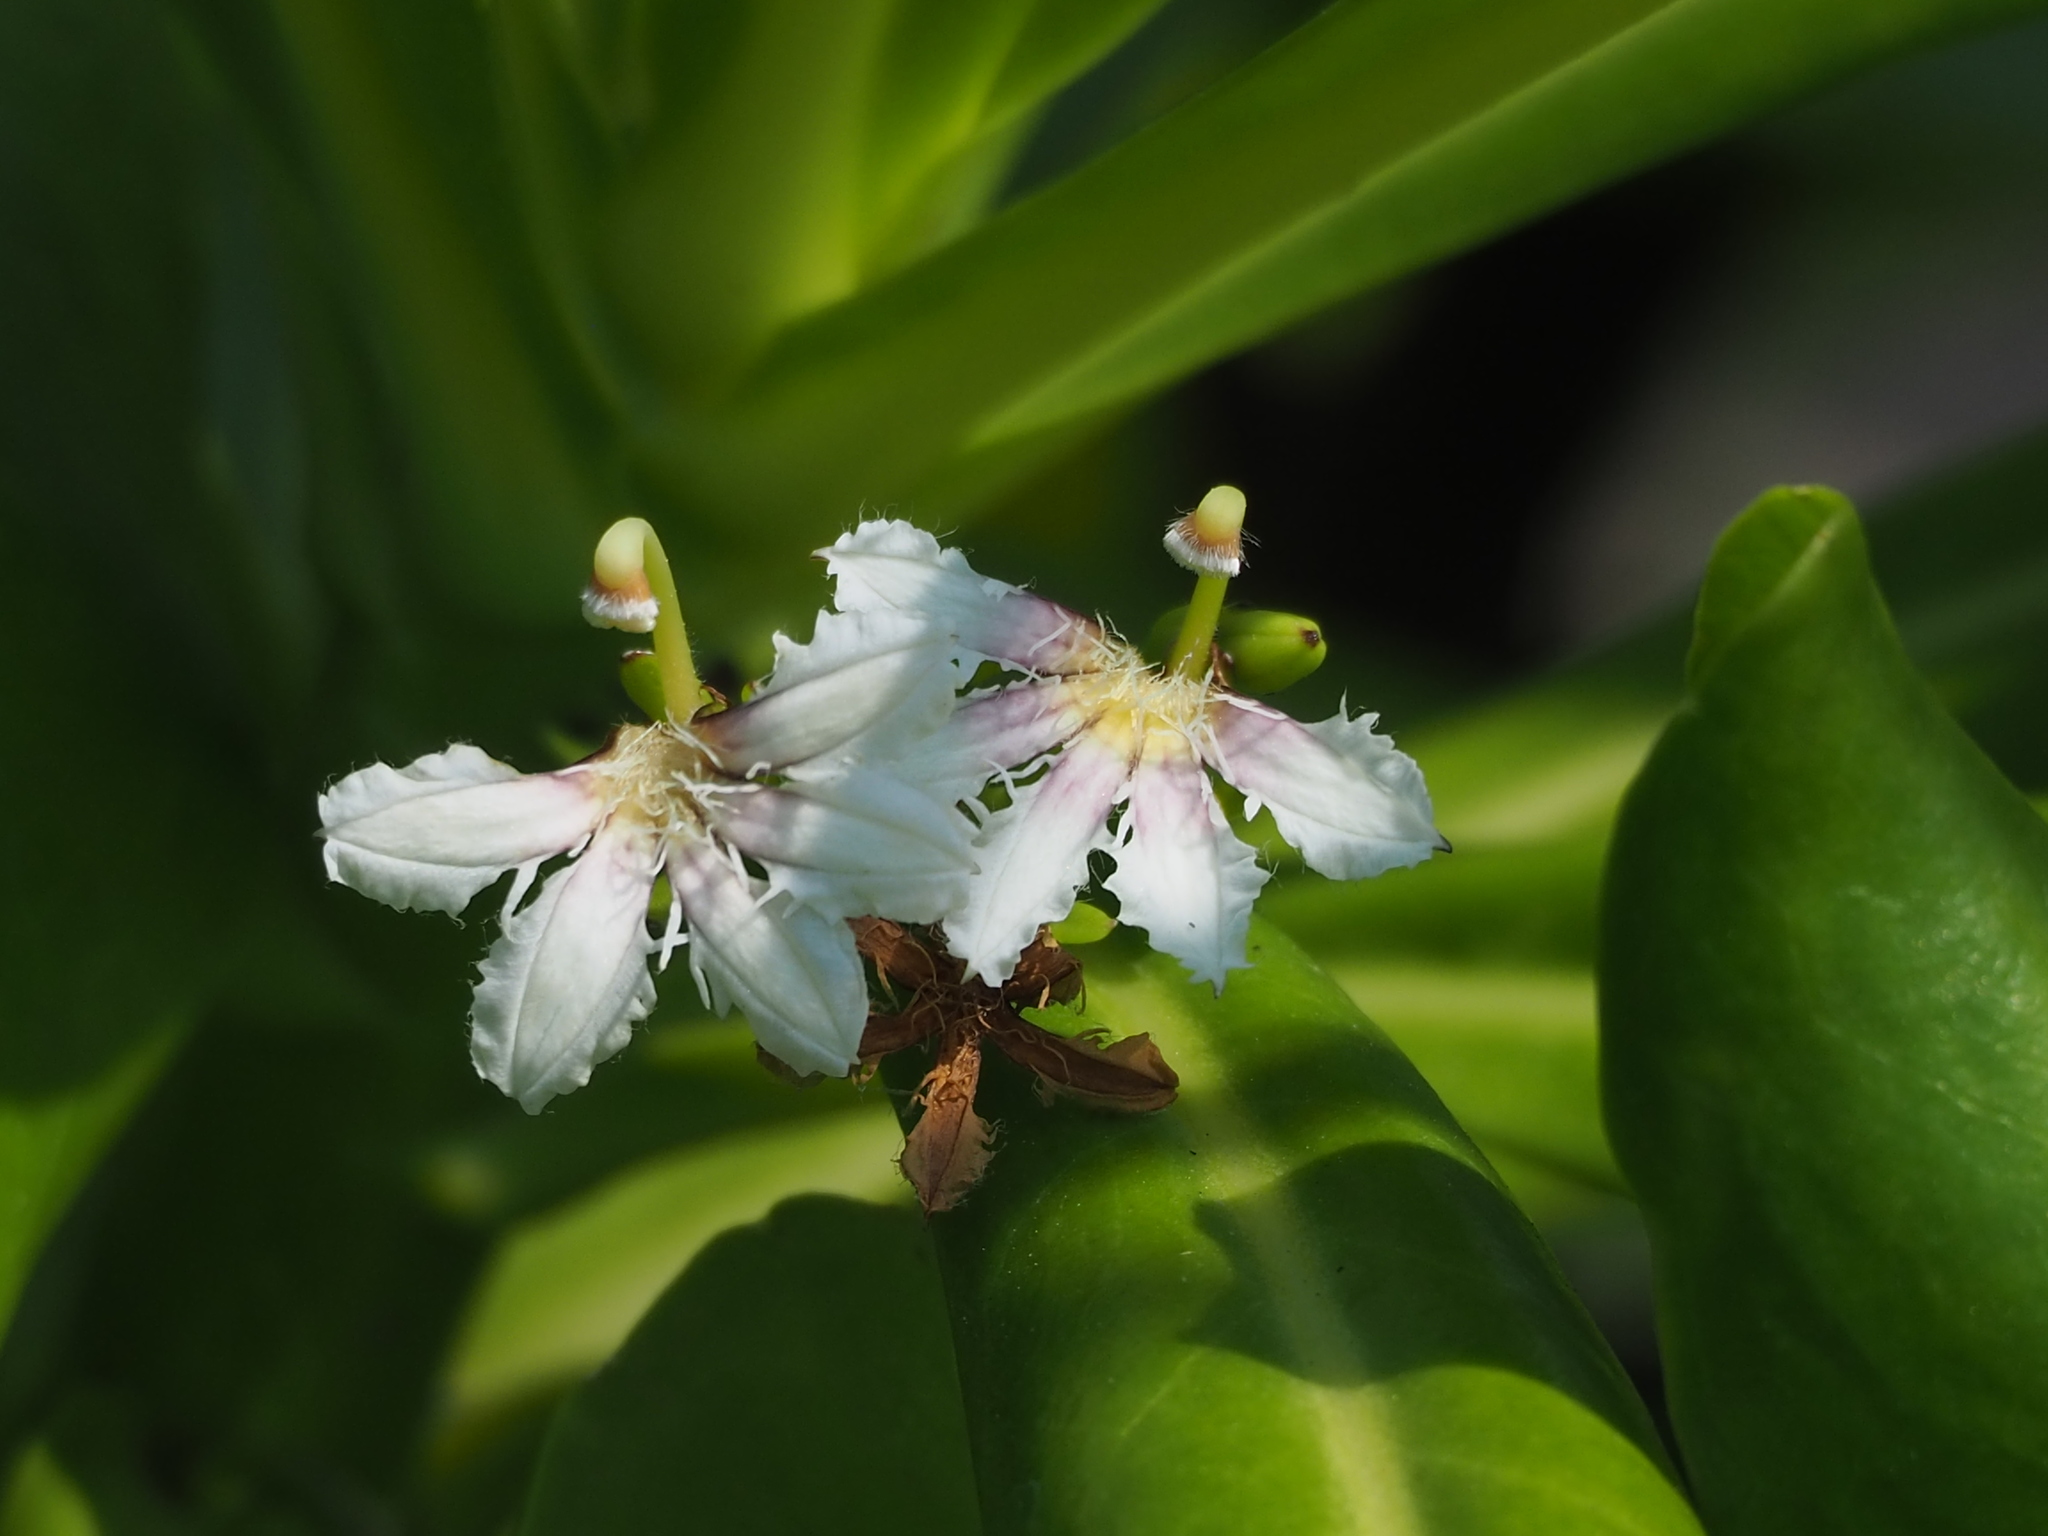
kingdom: Plantae
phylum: Tracheophyta
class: Magnoliopsida
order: Asterales
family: Goodeniaceae
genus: Scaevola
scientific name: Scaevola taccada
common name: Sea lettucetree
